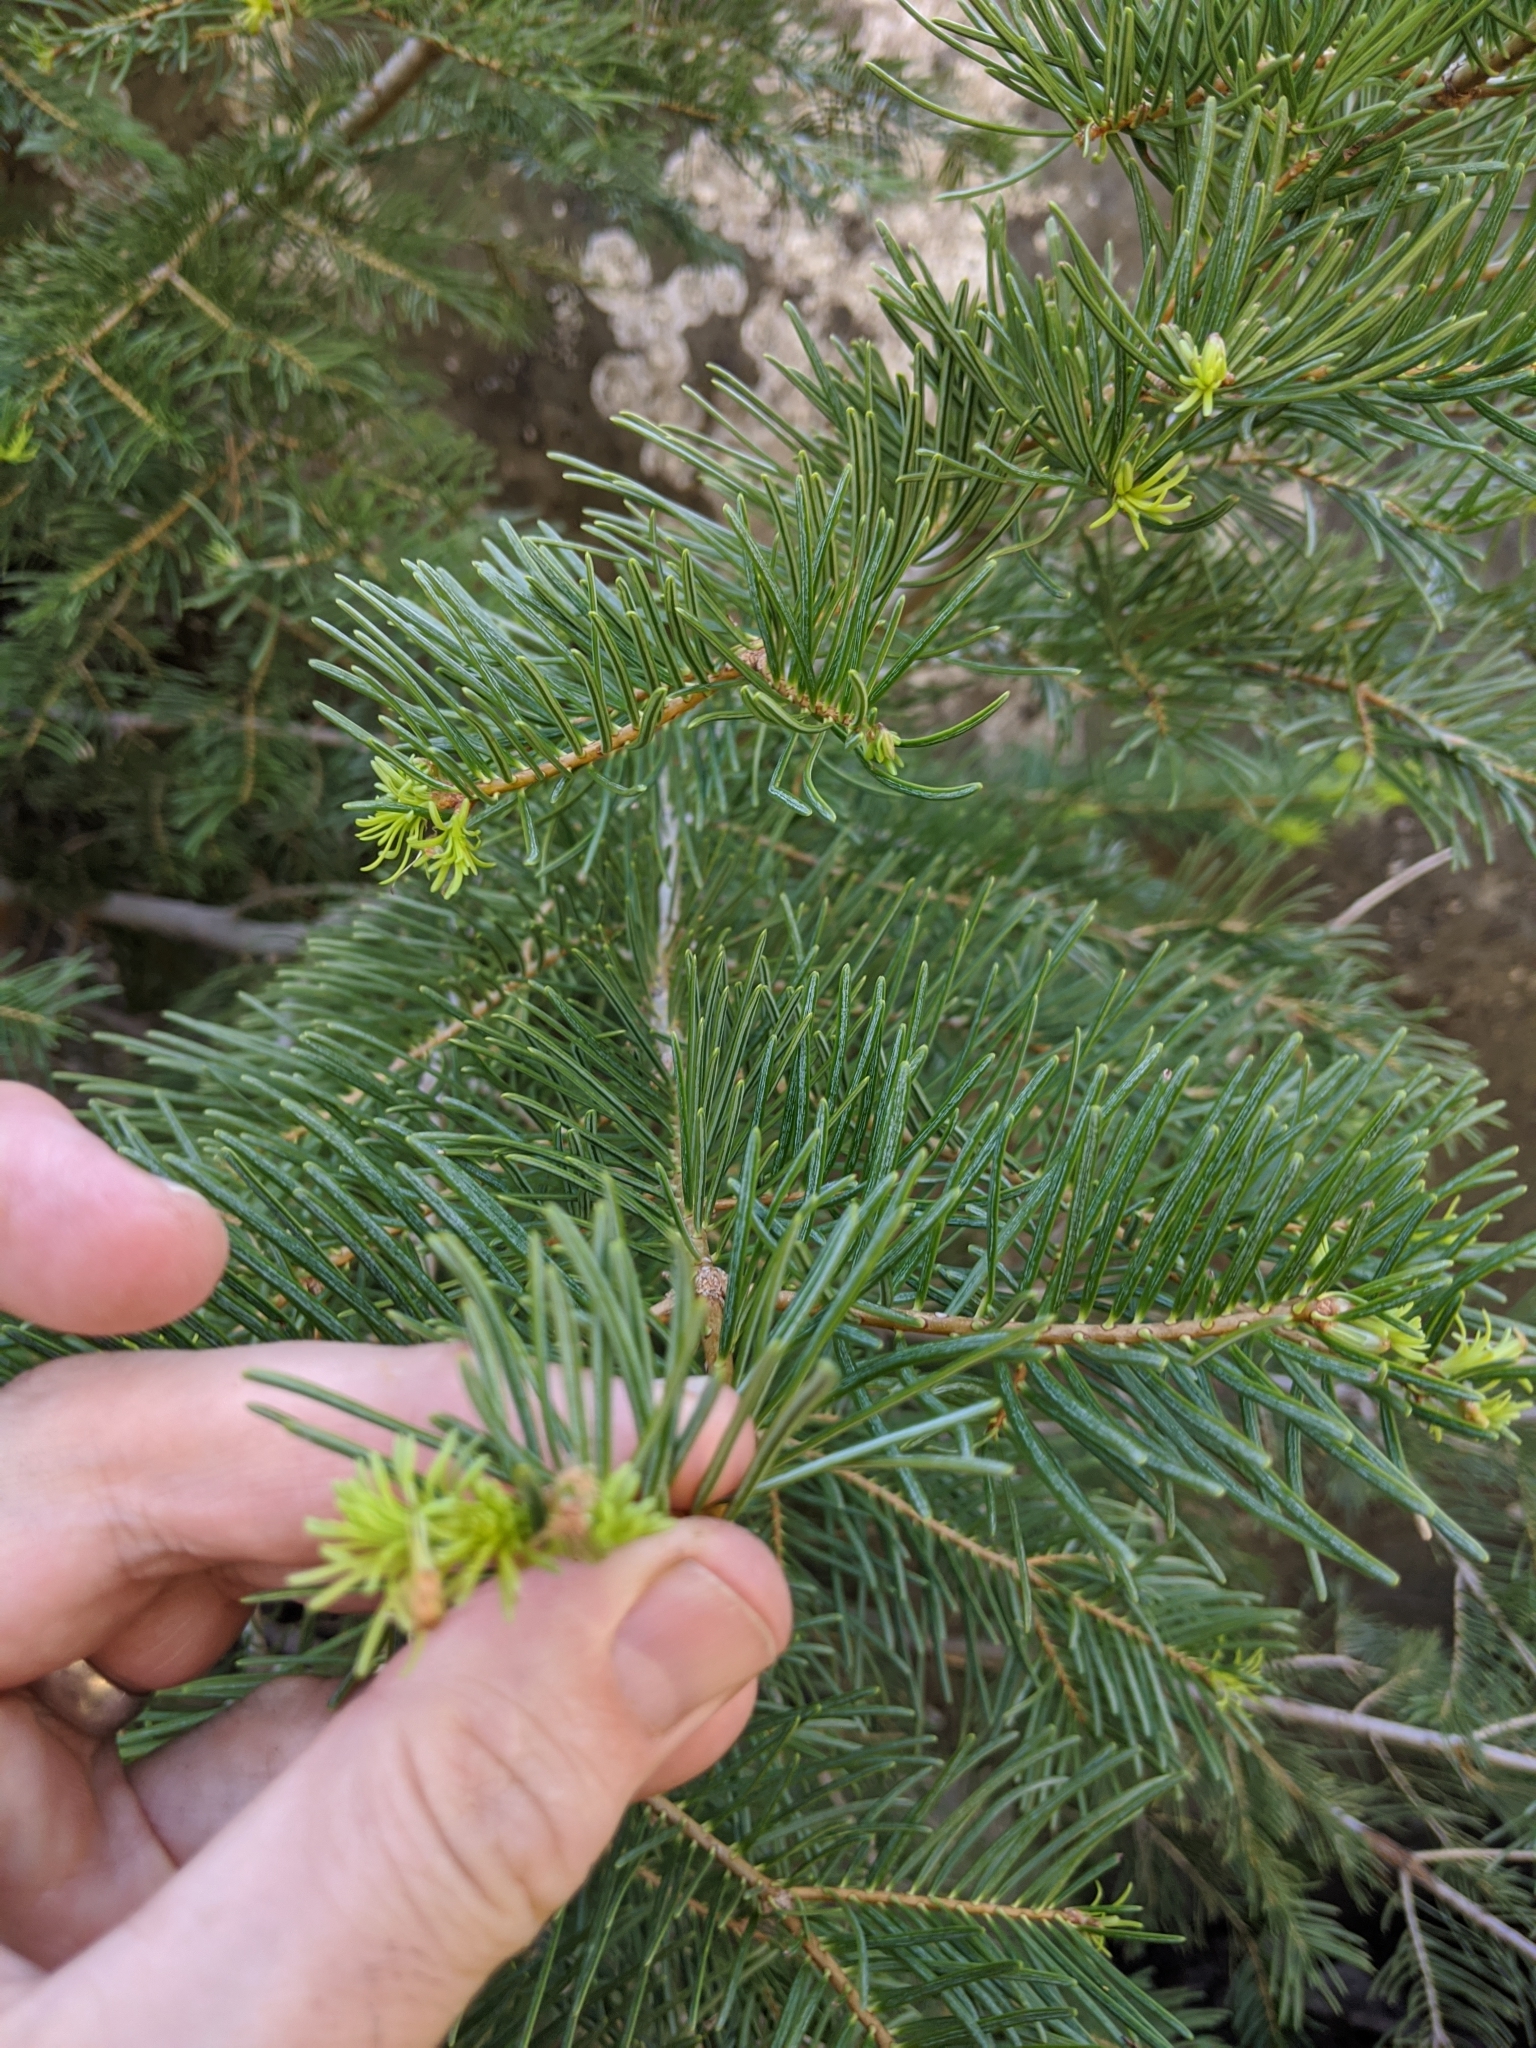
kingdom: Plantae
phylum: Tracheophyta
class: Pinopsida
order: Pinales
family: Pinaceae
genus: Abies
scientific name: Abies concolor
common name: Colorado fir
